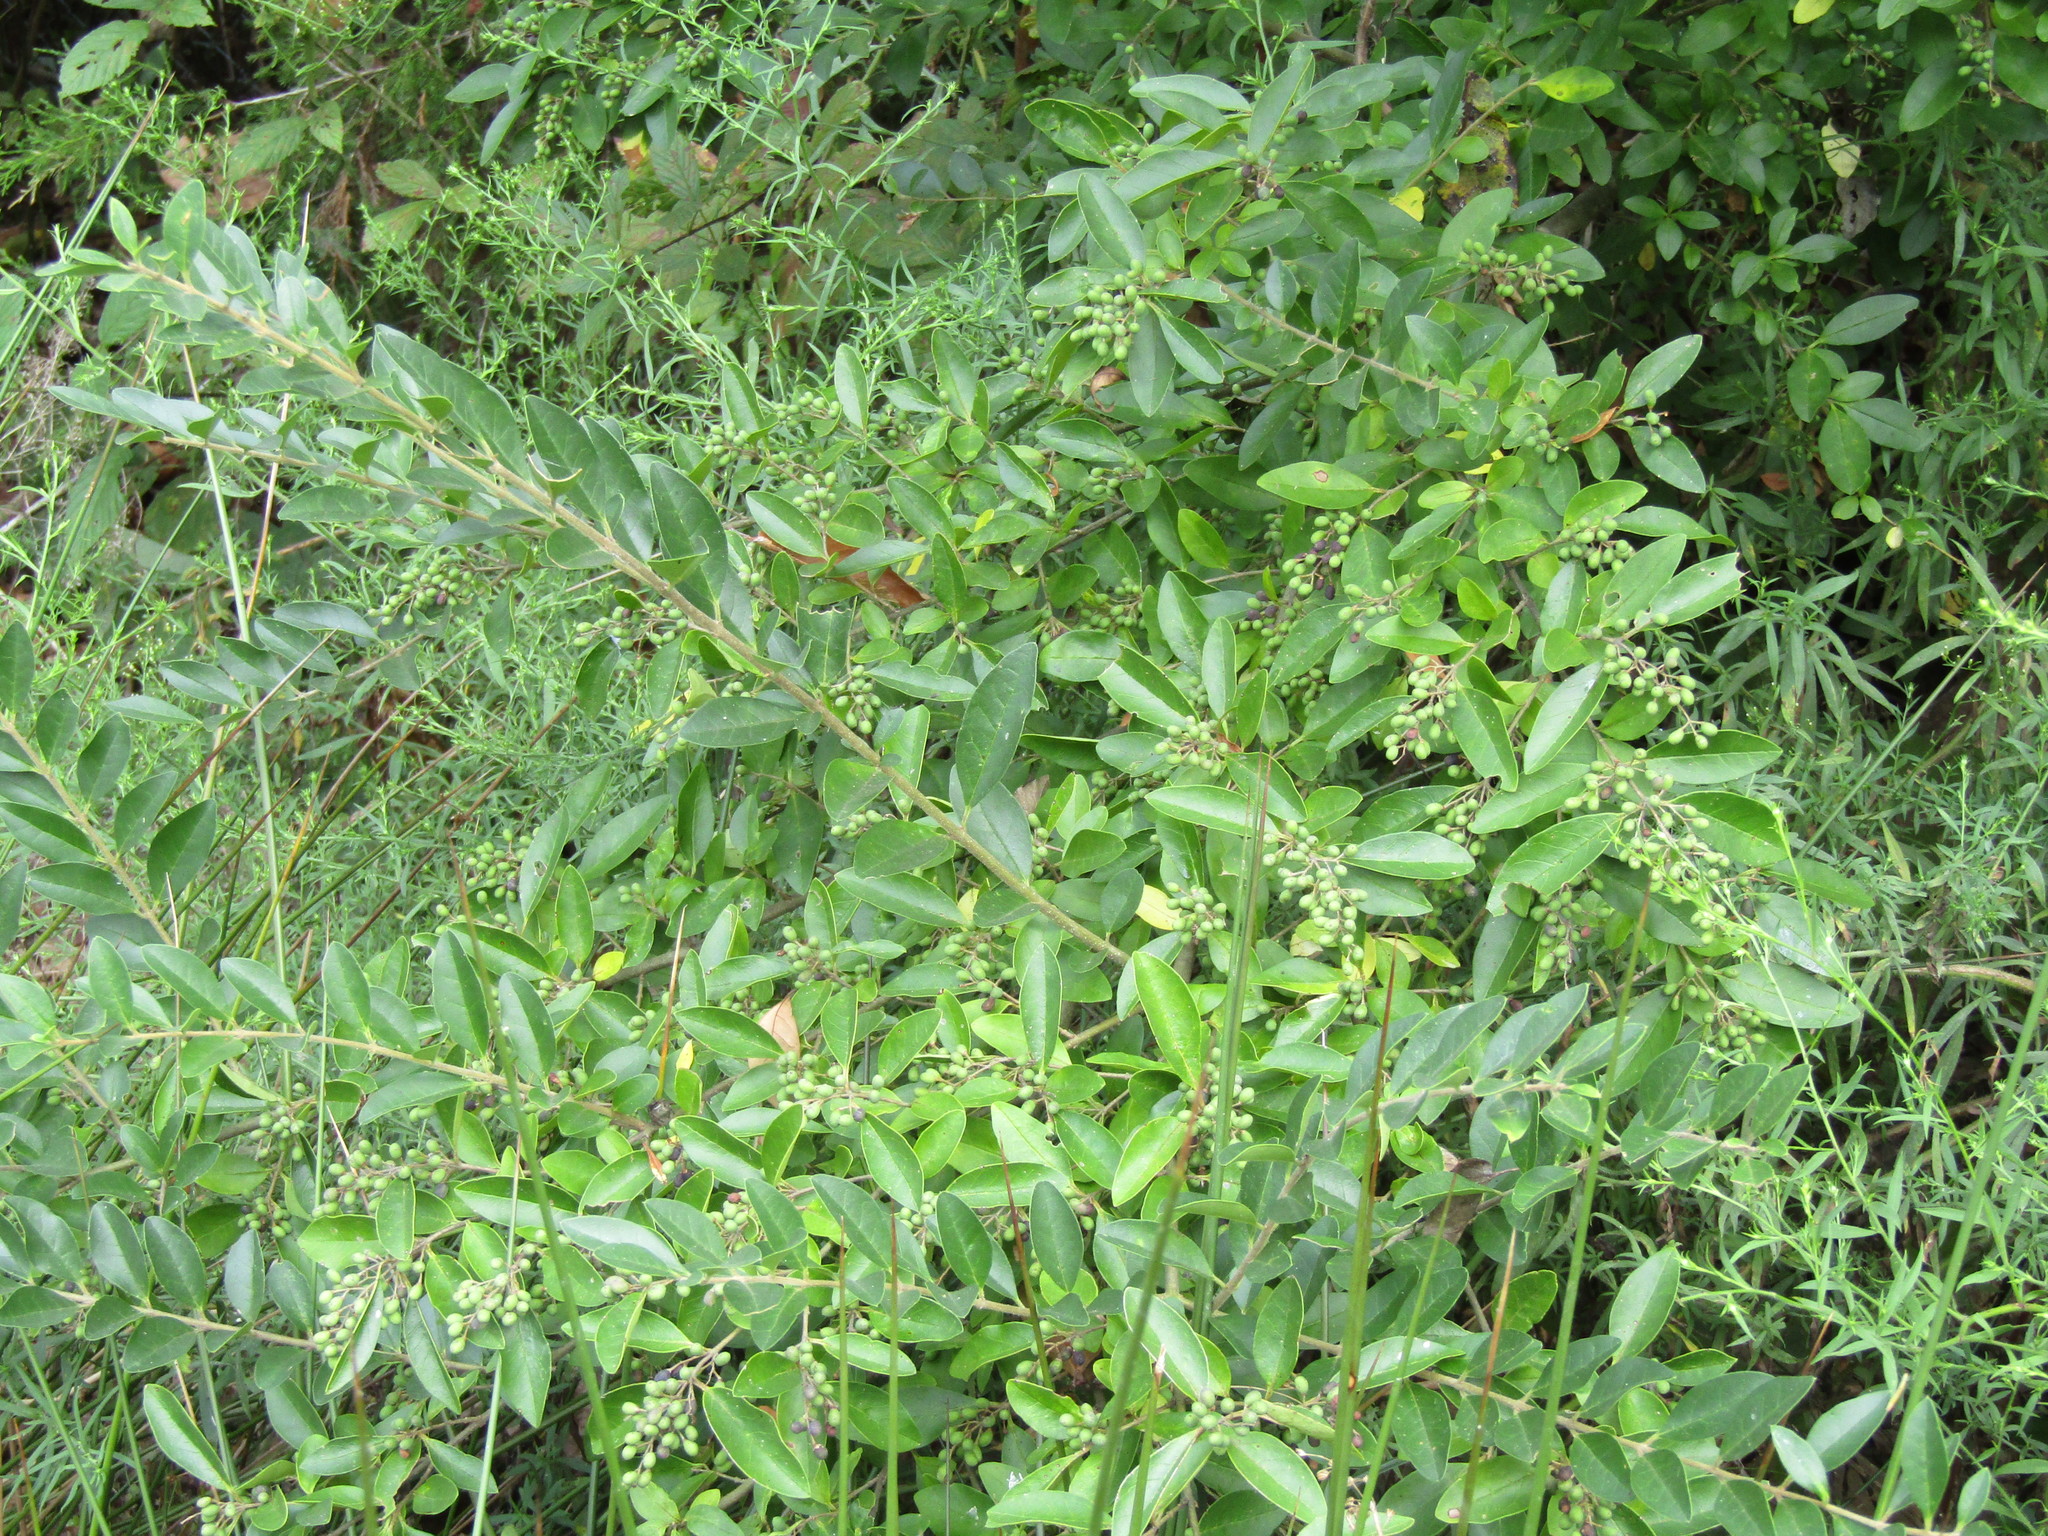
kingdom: Plantae
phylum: Tracheophyta
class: Magnoliopsida
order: Lamiales
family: Oleaceae
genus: Ligustrum
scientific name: Ligustrum sinense
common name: Chinese privet
